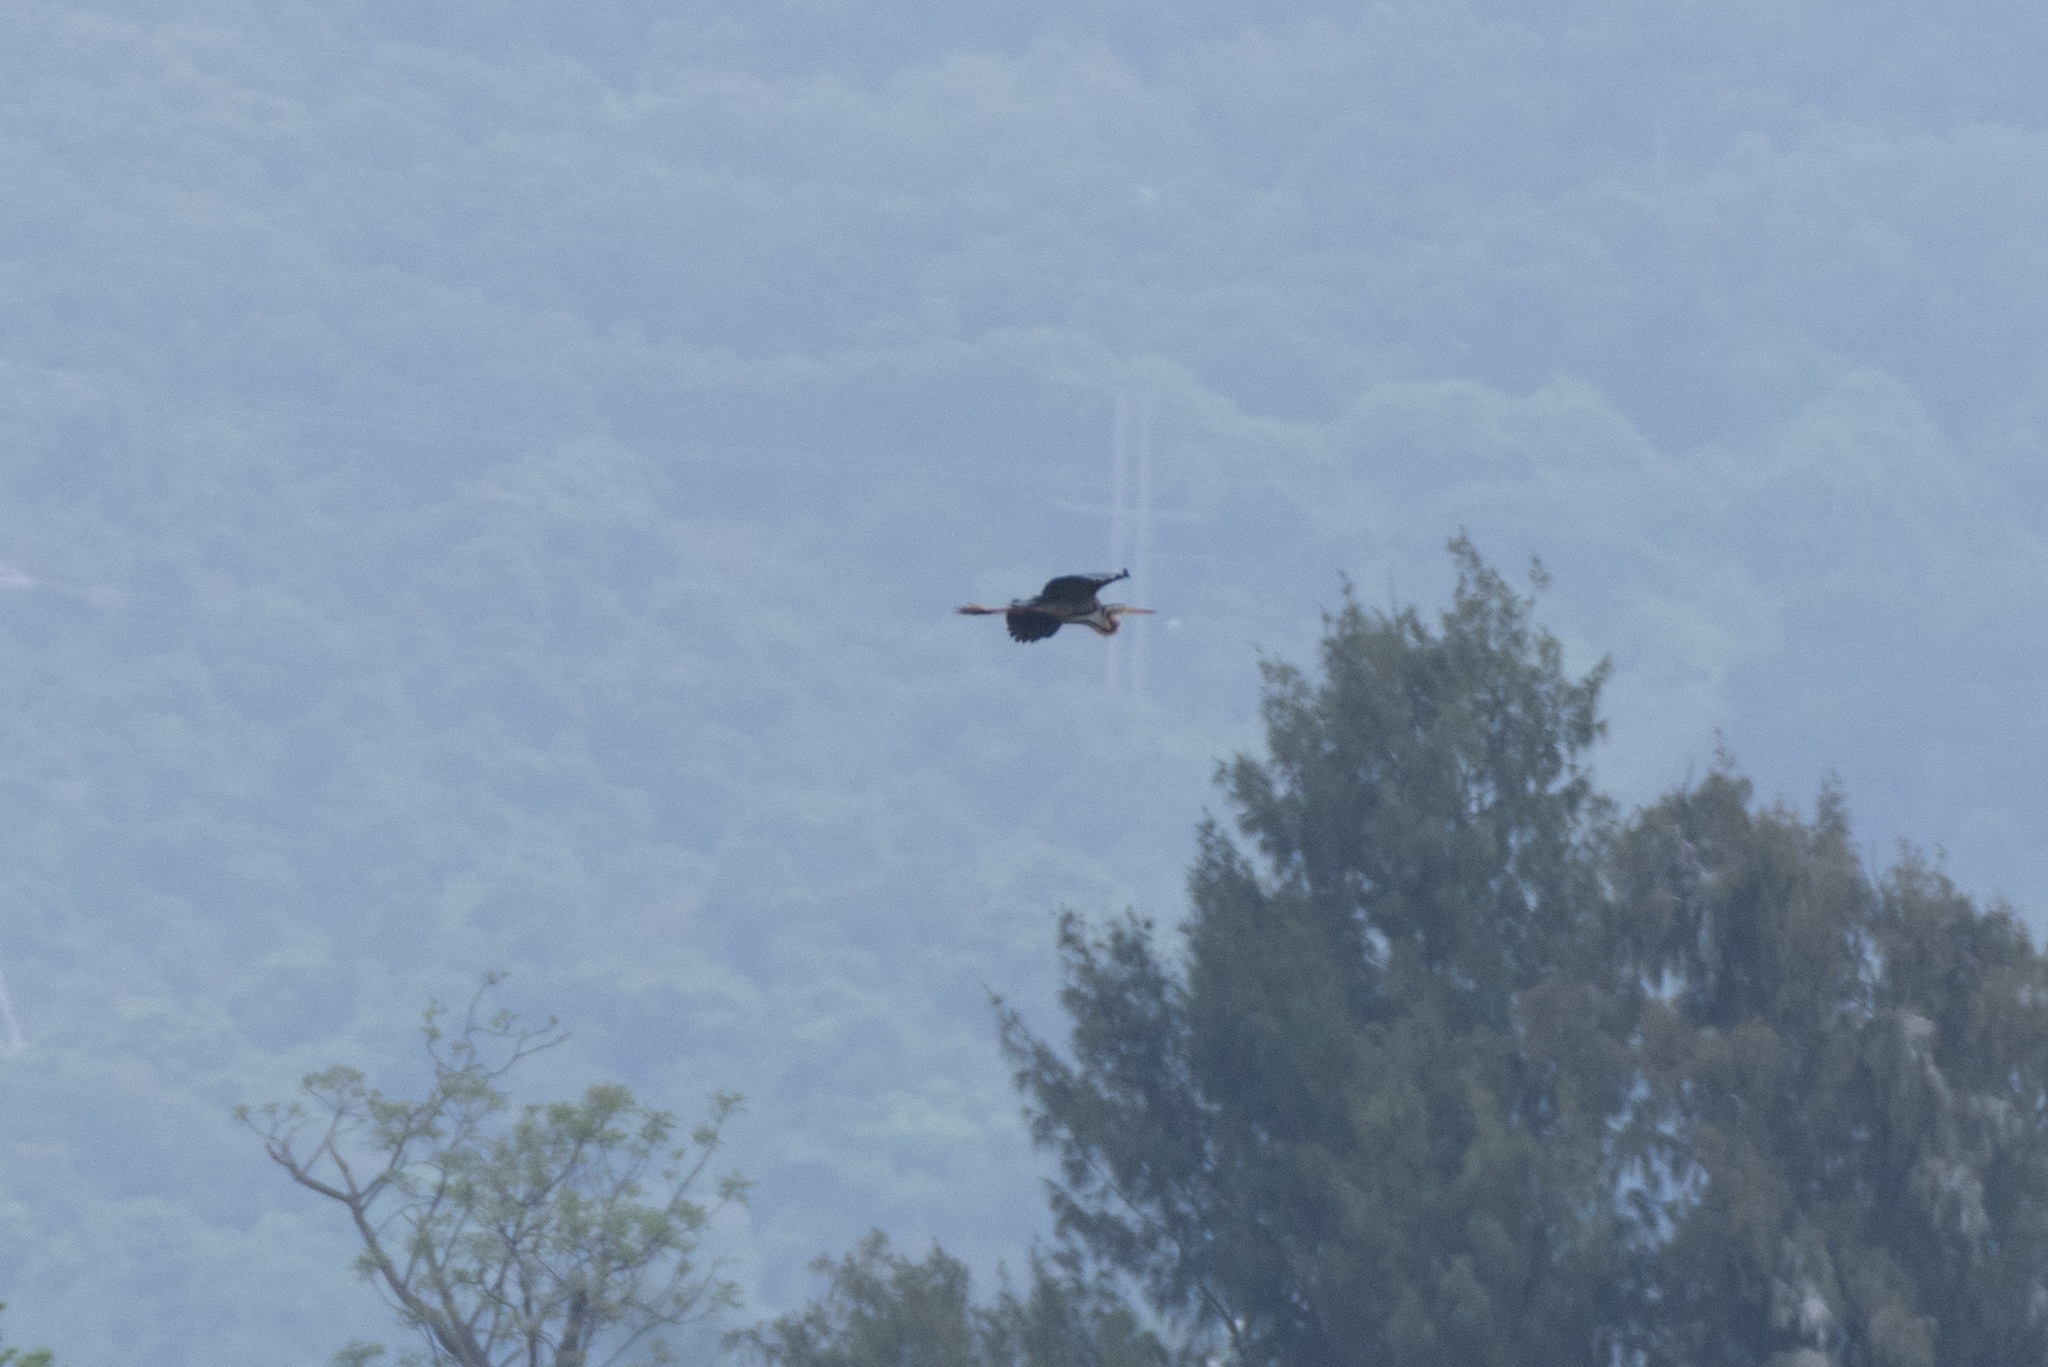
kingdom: Animalia
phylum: Chordata
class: Aves
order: Pelecaniformes
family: Ardeidae
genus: Ardea
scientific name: Ardea purpurea
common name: Purple heron
